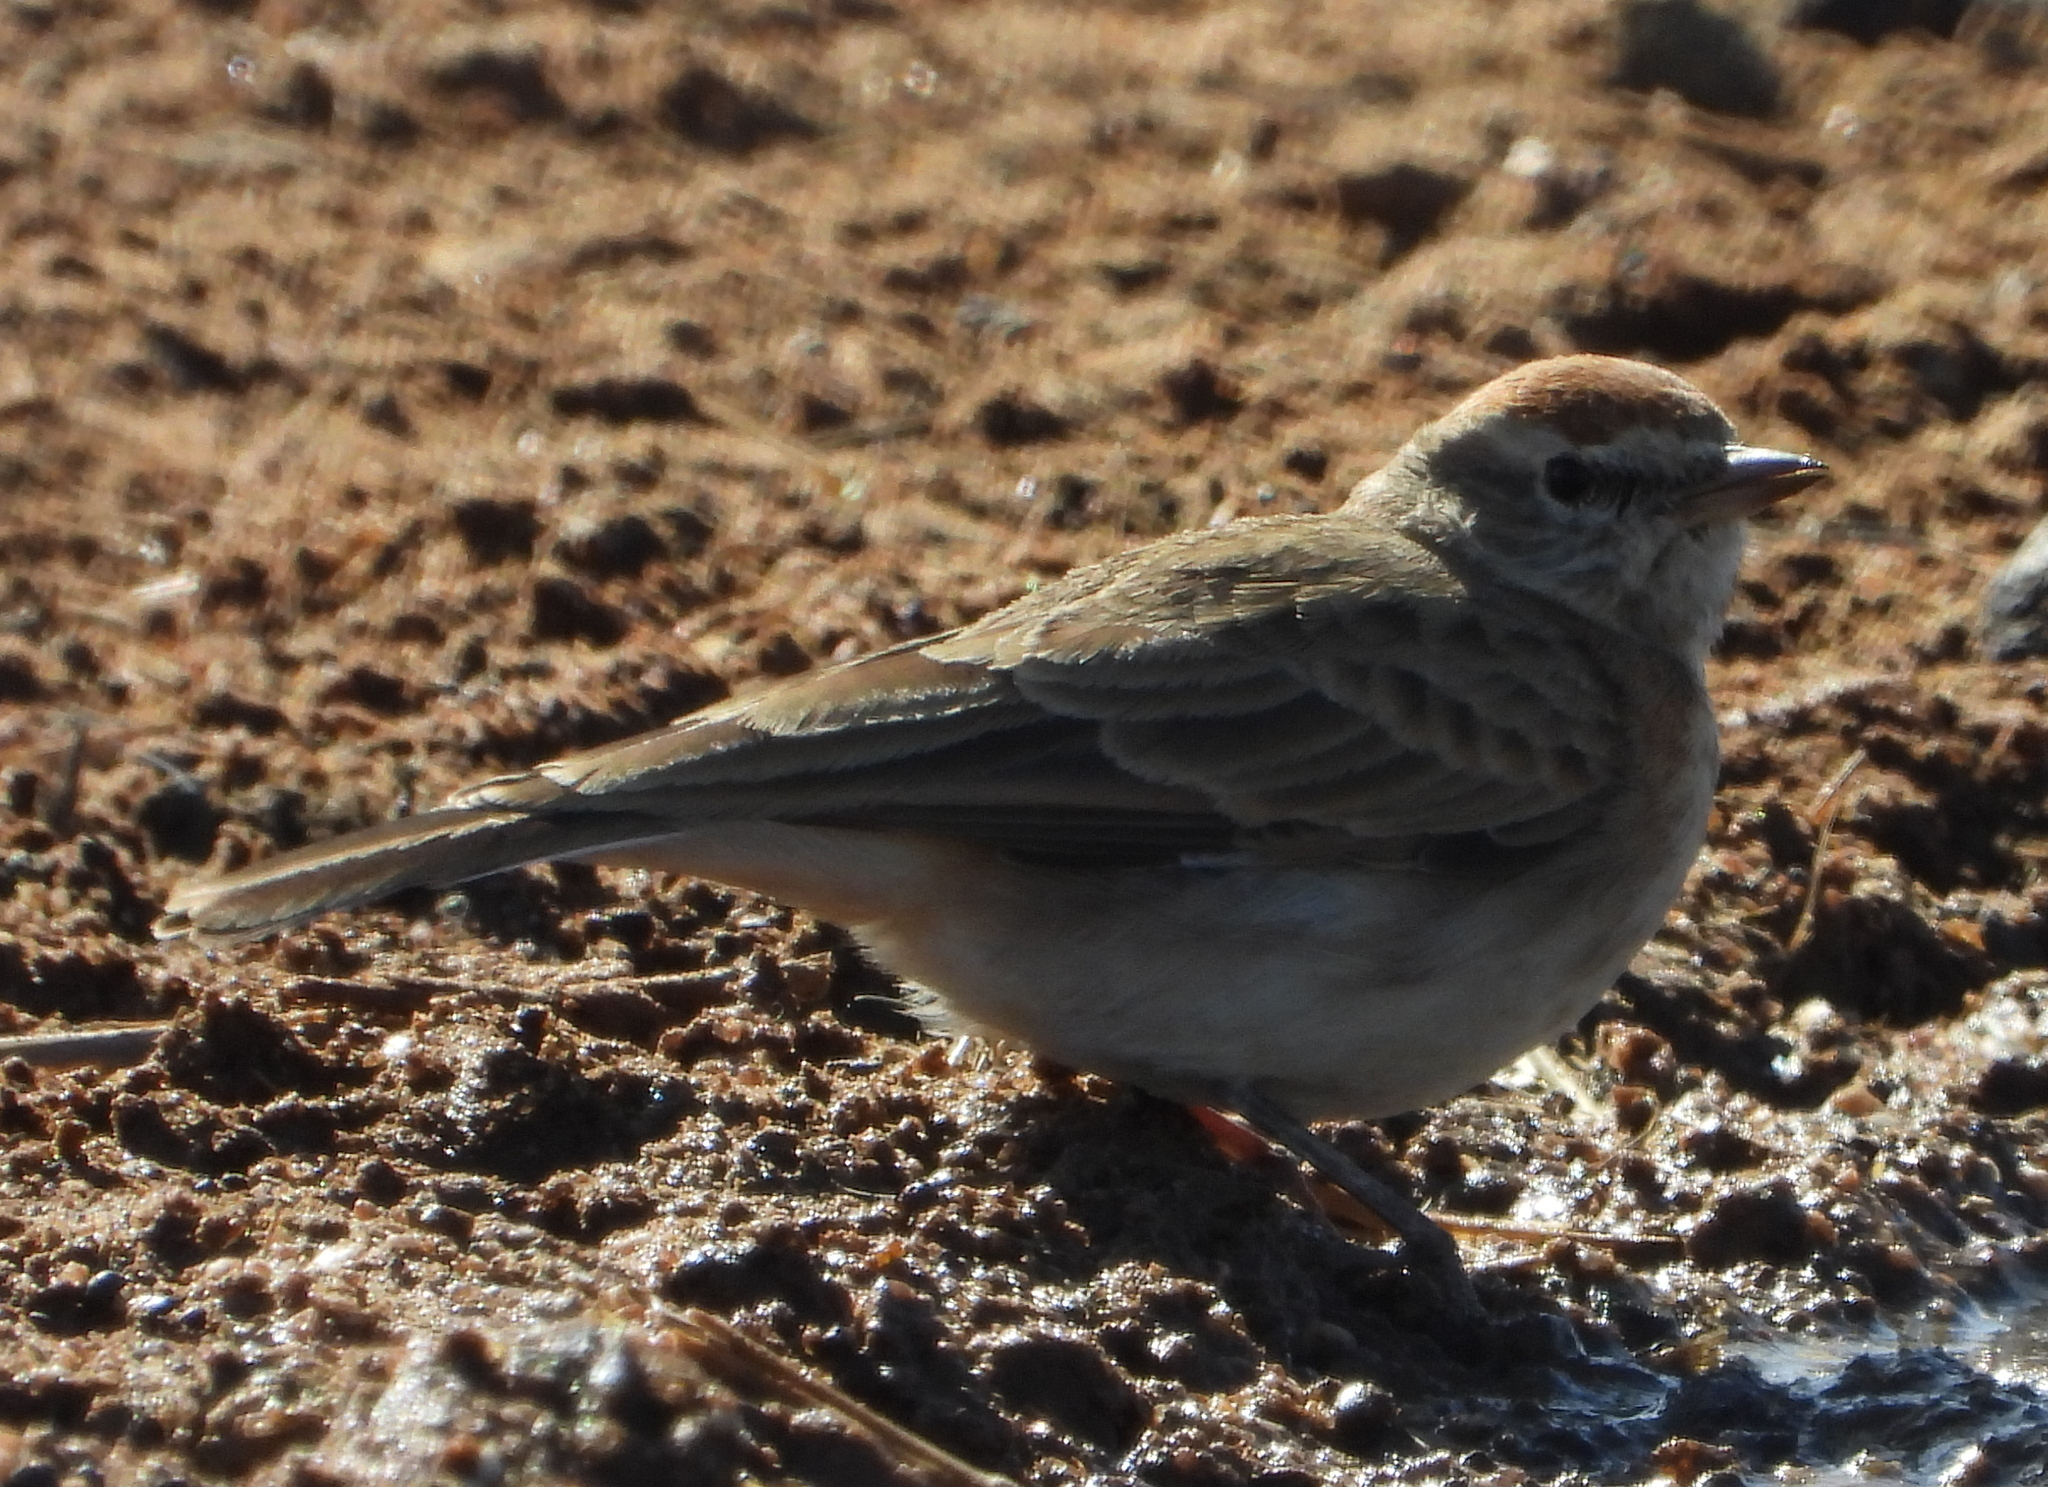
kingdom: Animalia
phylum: Chordata
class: Aves
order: Passeriformes
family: Alaudidae
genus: Calandrella
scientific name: Calandrella cinerea
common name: Red-capped lark
